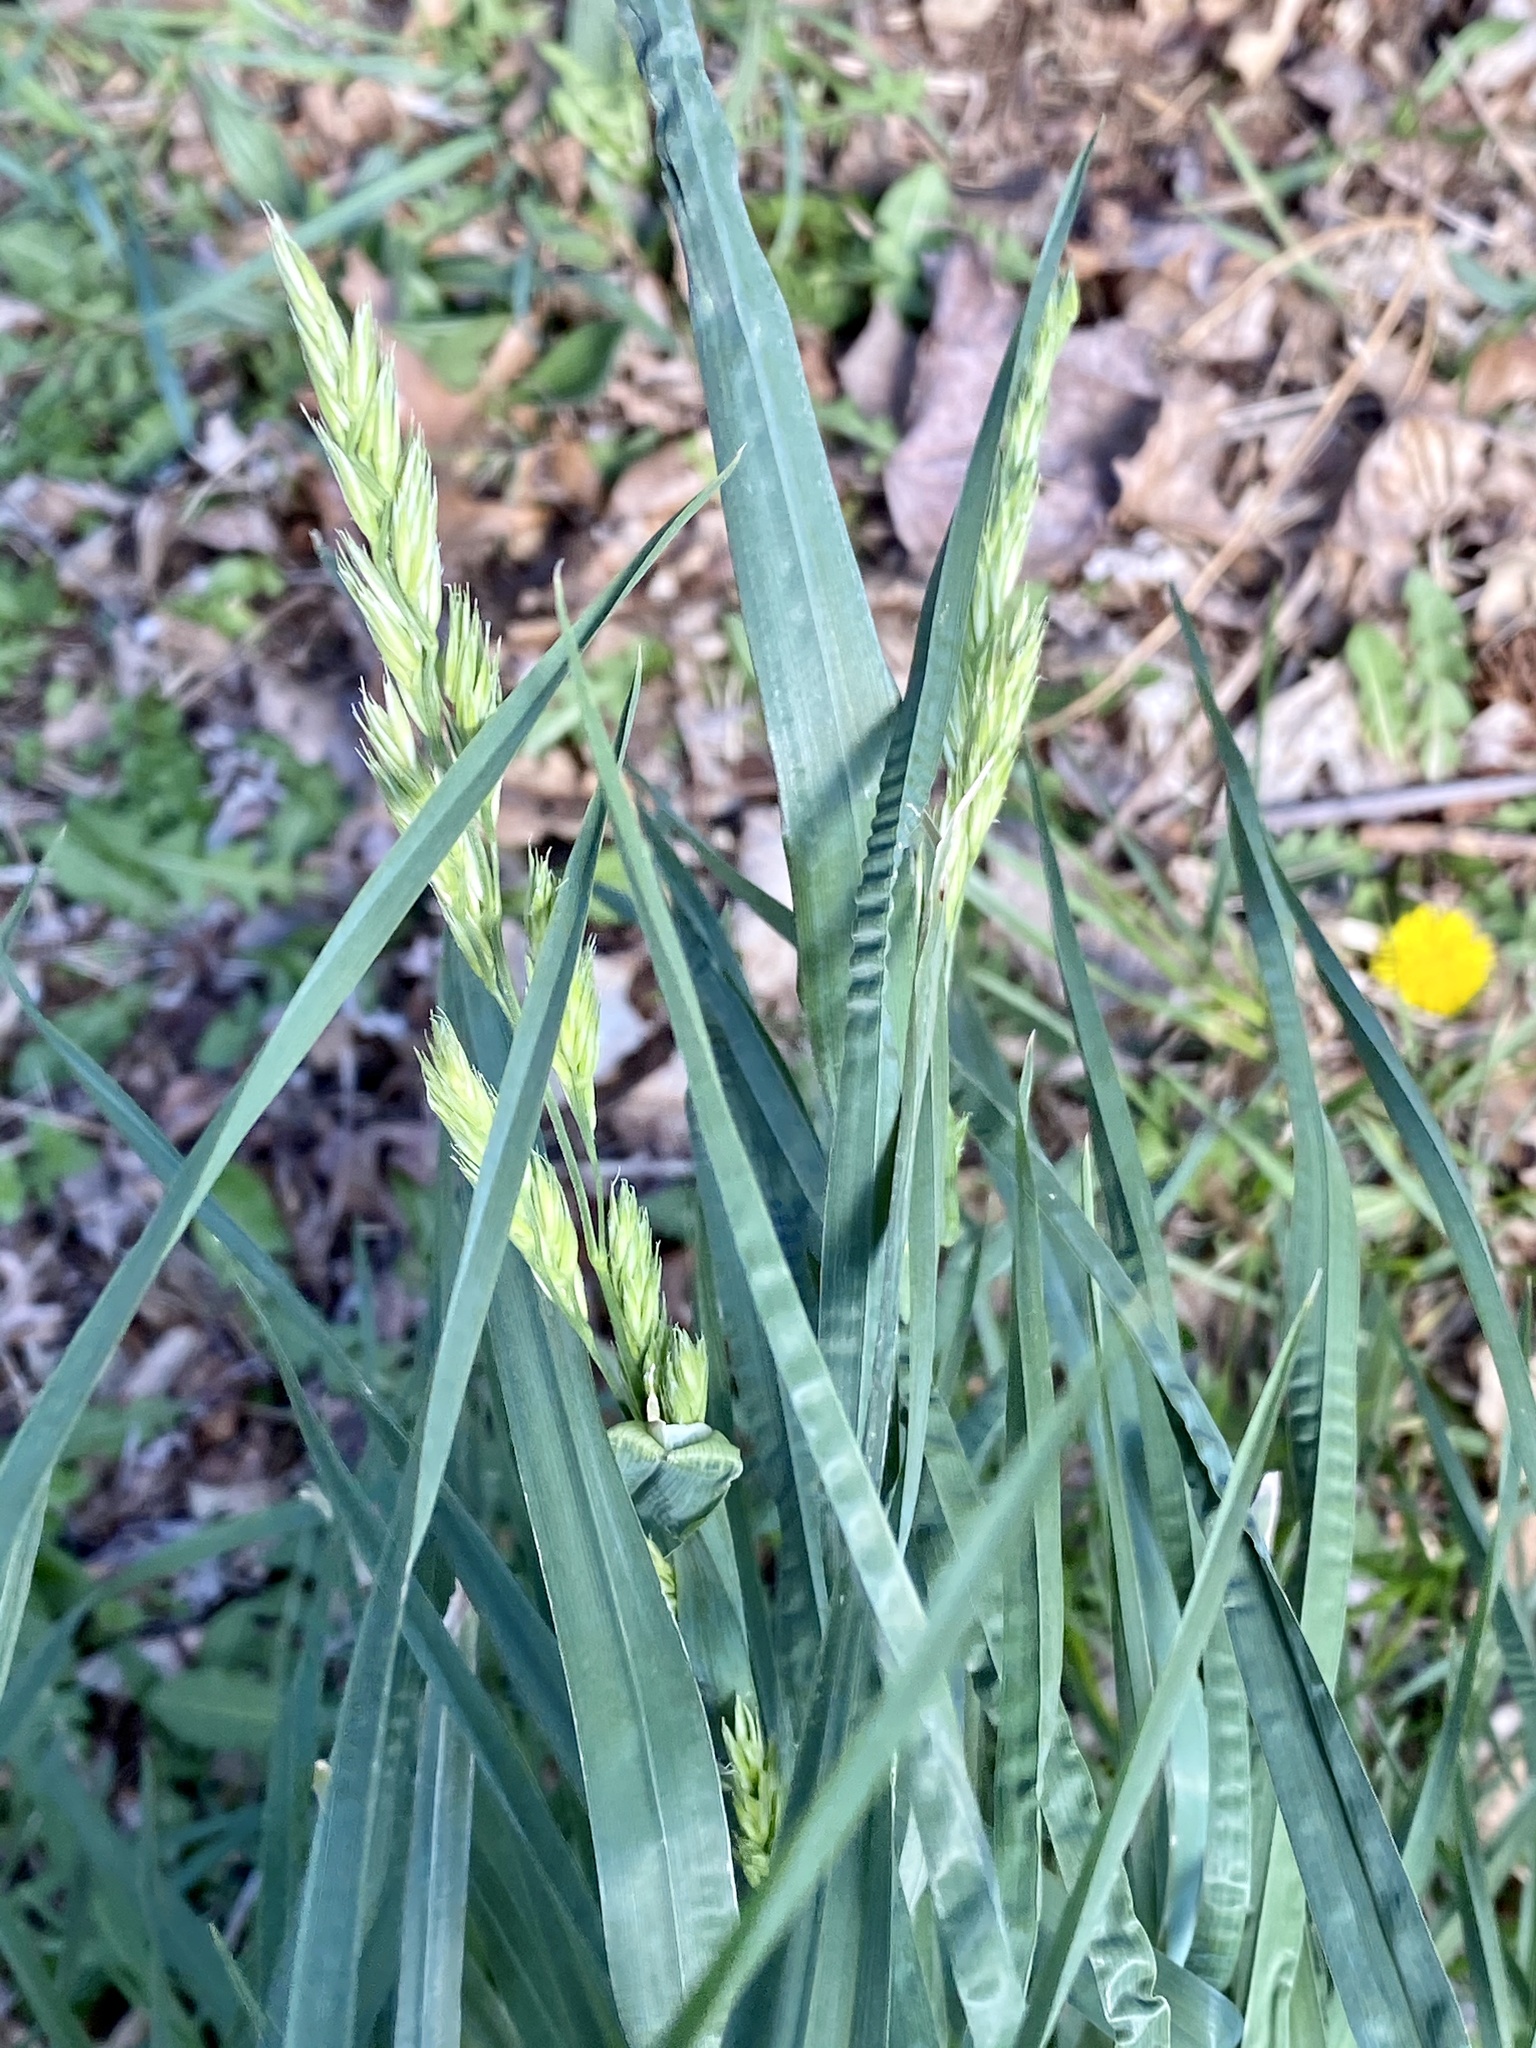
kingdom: Plantae
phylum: Tracheophyta
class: Liliopsida
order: Poales
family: Poaceae
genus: Dactylis
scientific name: Dactylis glomerata
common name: Orchardgrass
